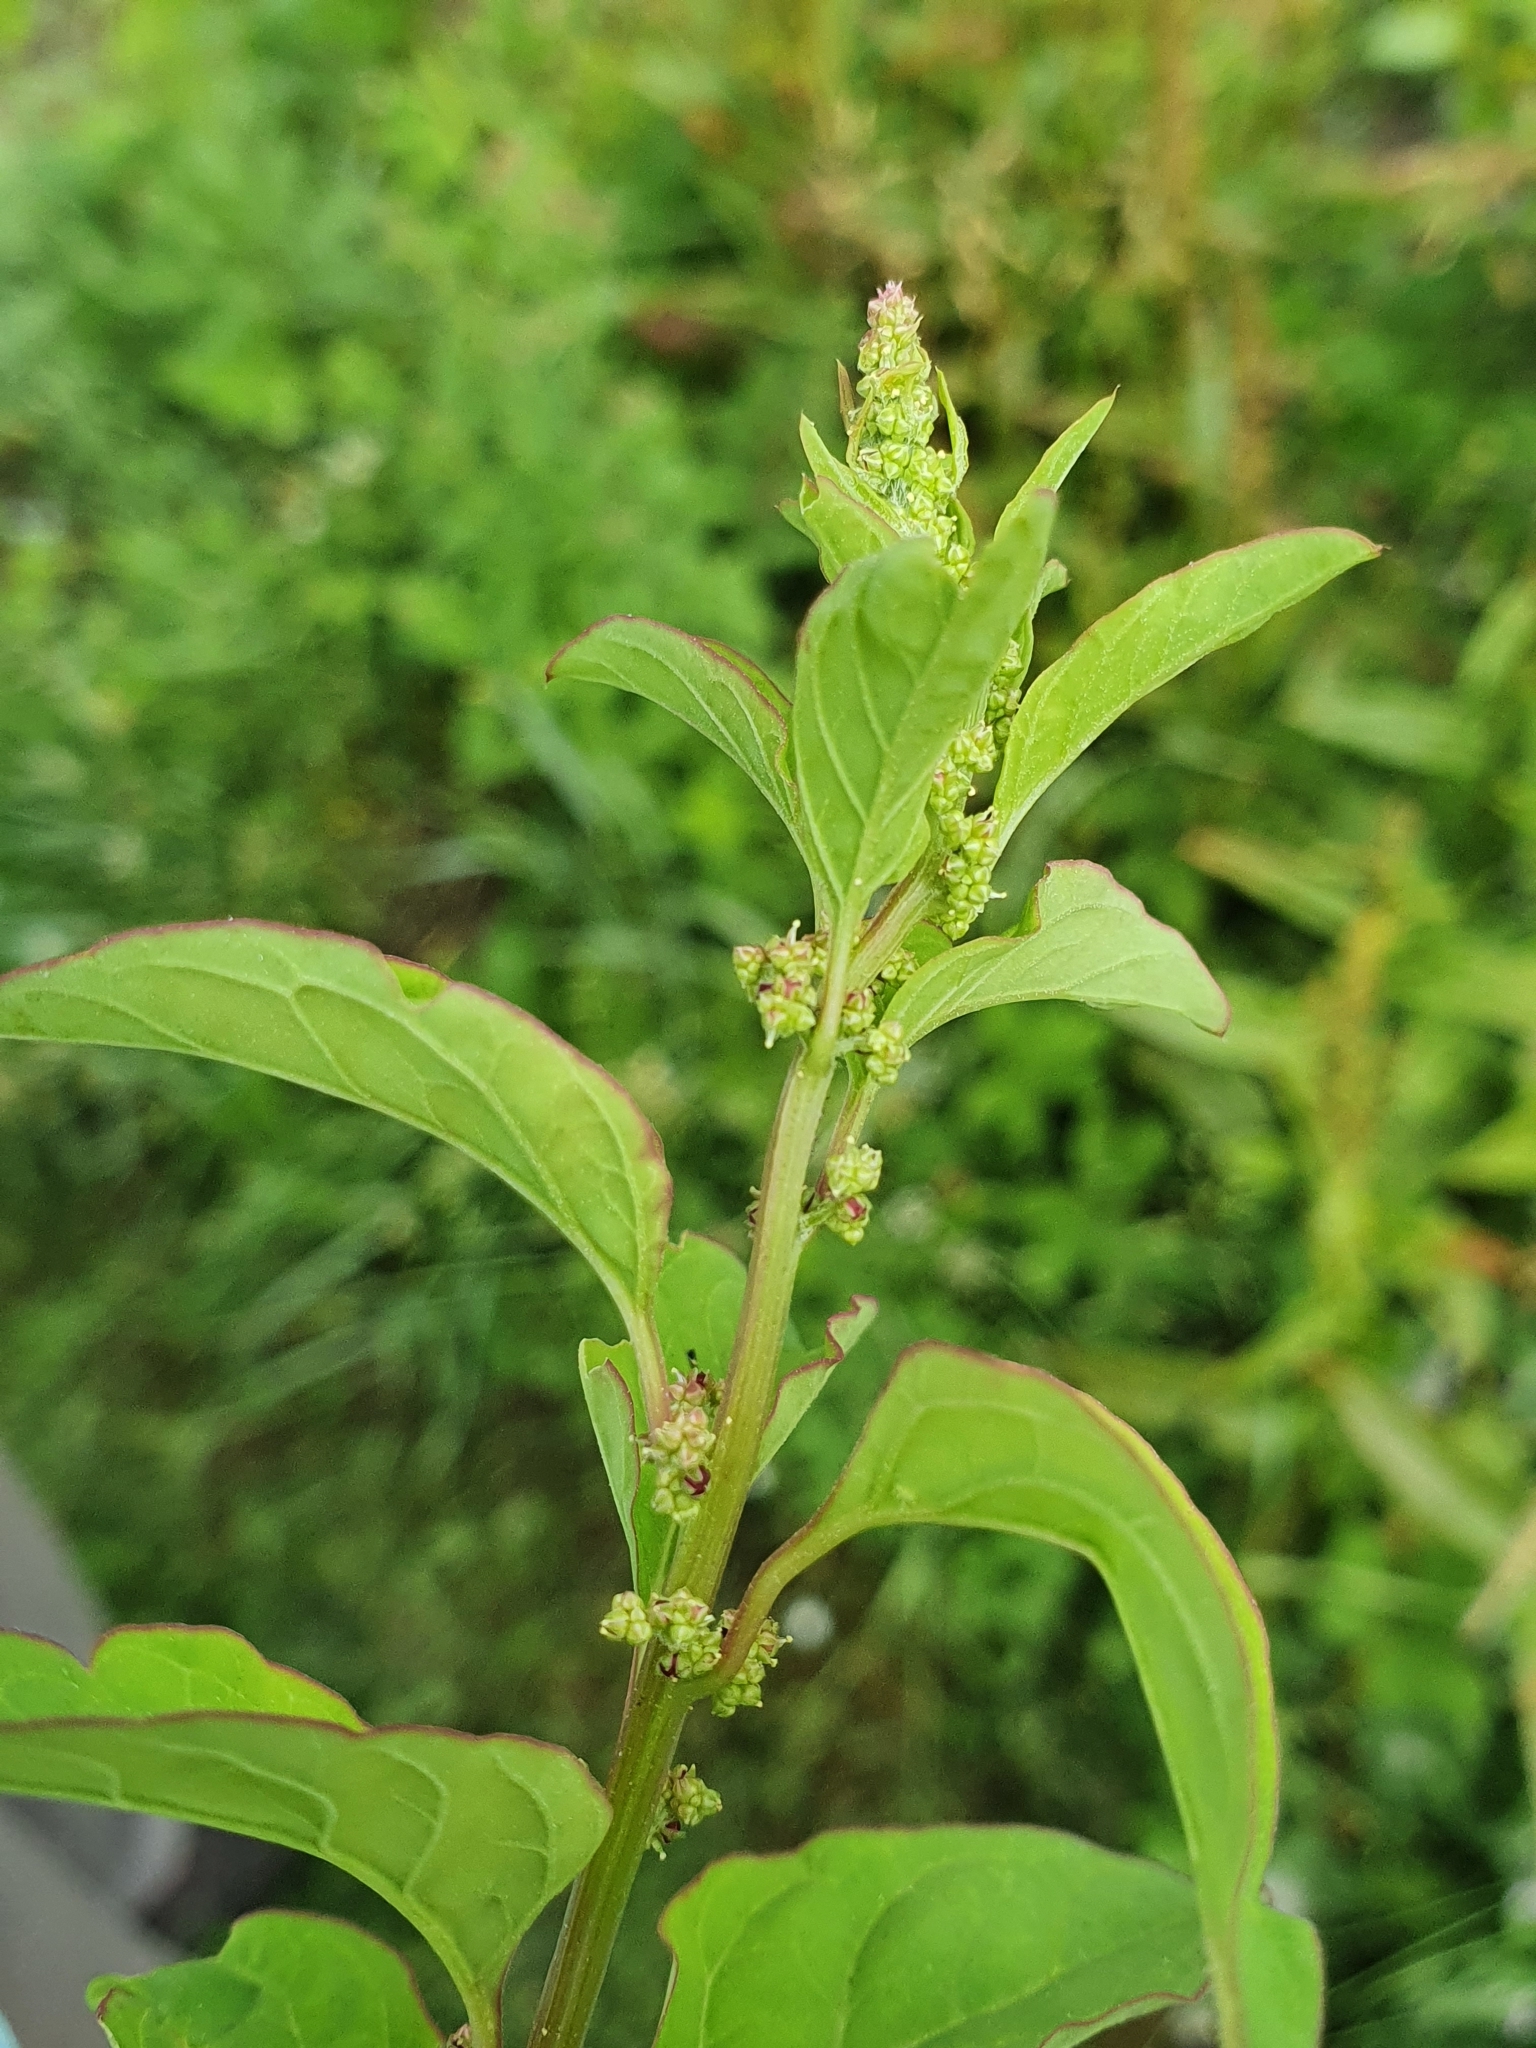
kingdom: Plantae
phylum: Tracheophyta
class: Magnoliopsida
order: Caryophyllales
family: Amaranthaceae
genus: Lipandra
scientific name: Lipandra polysperma
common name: Many-seed goosefoot
